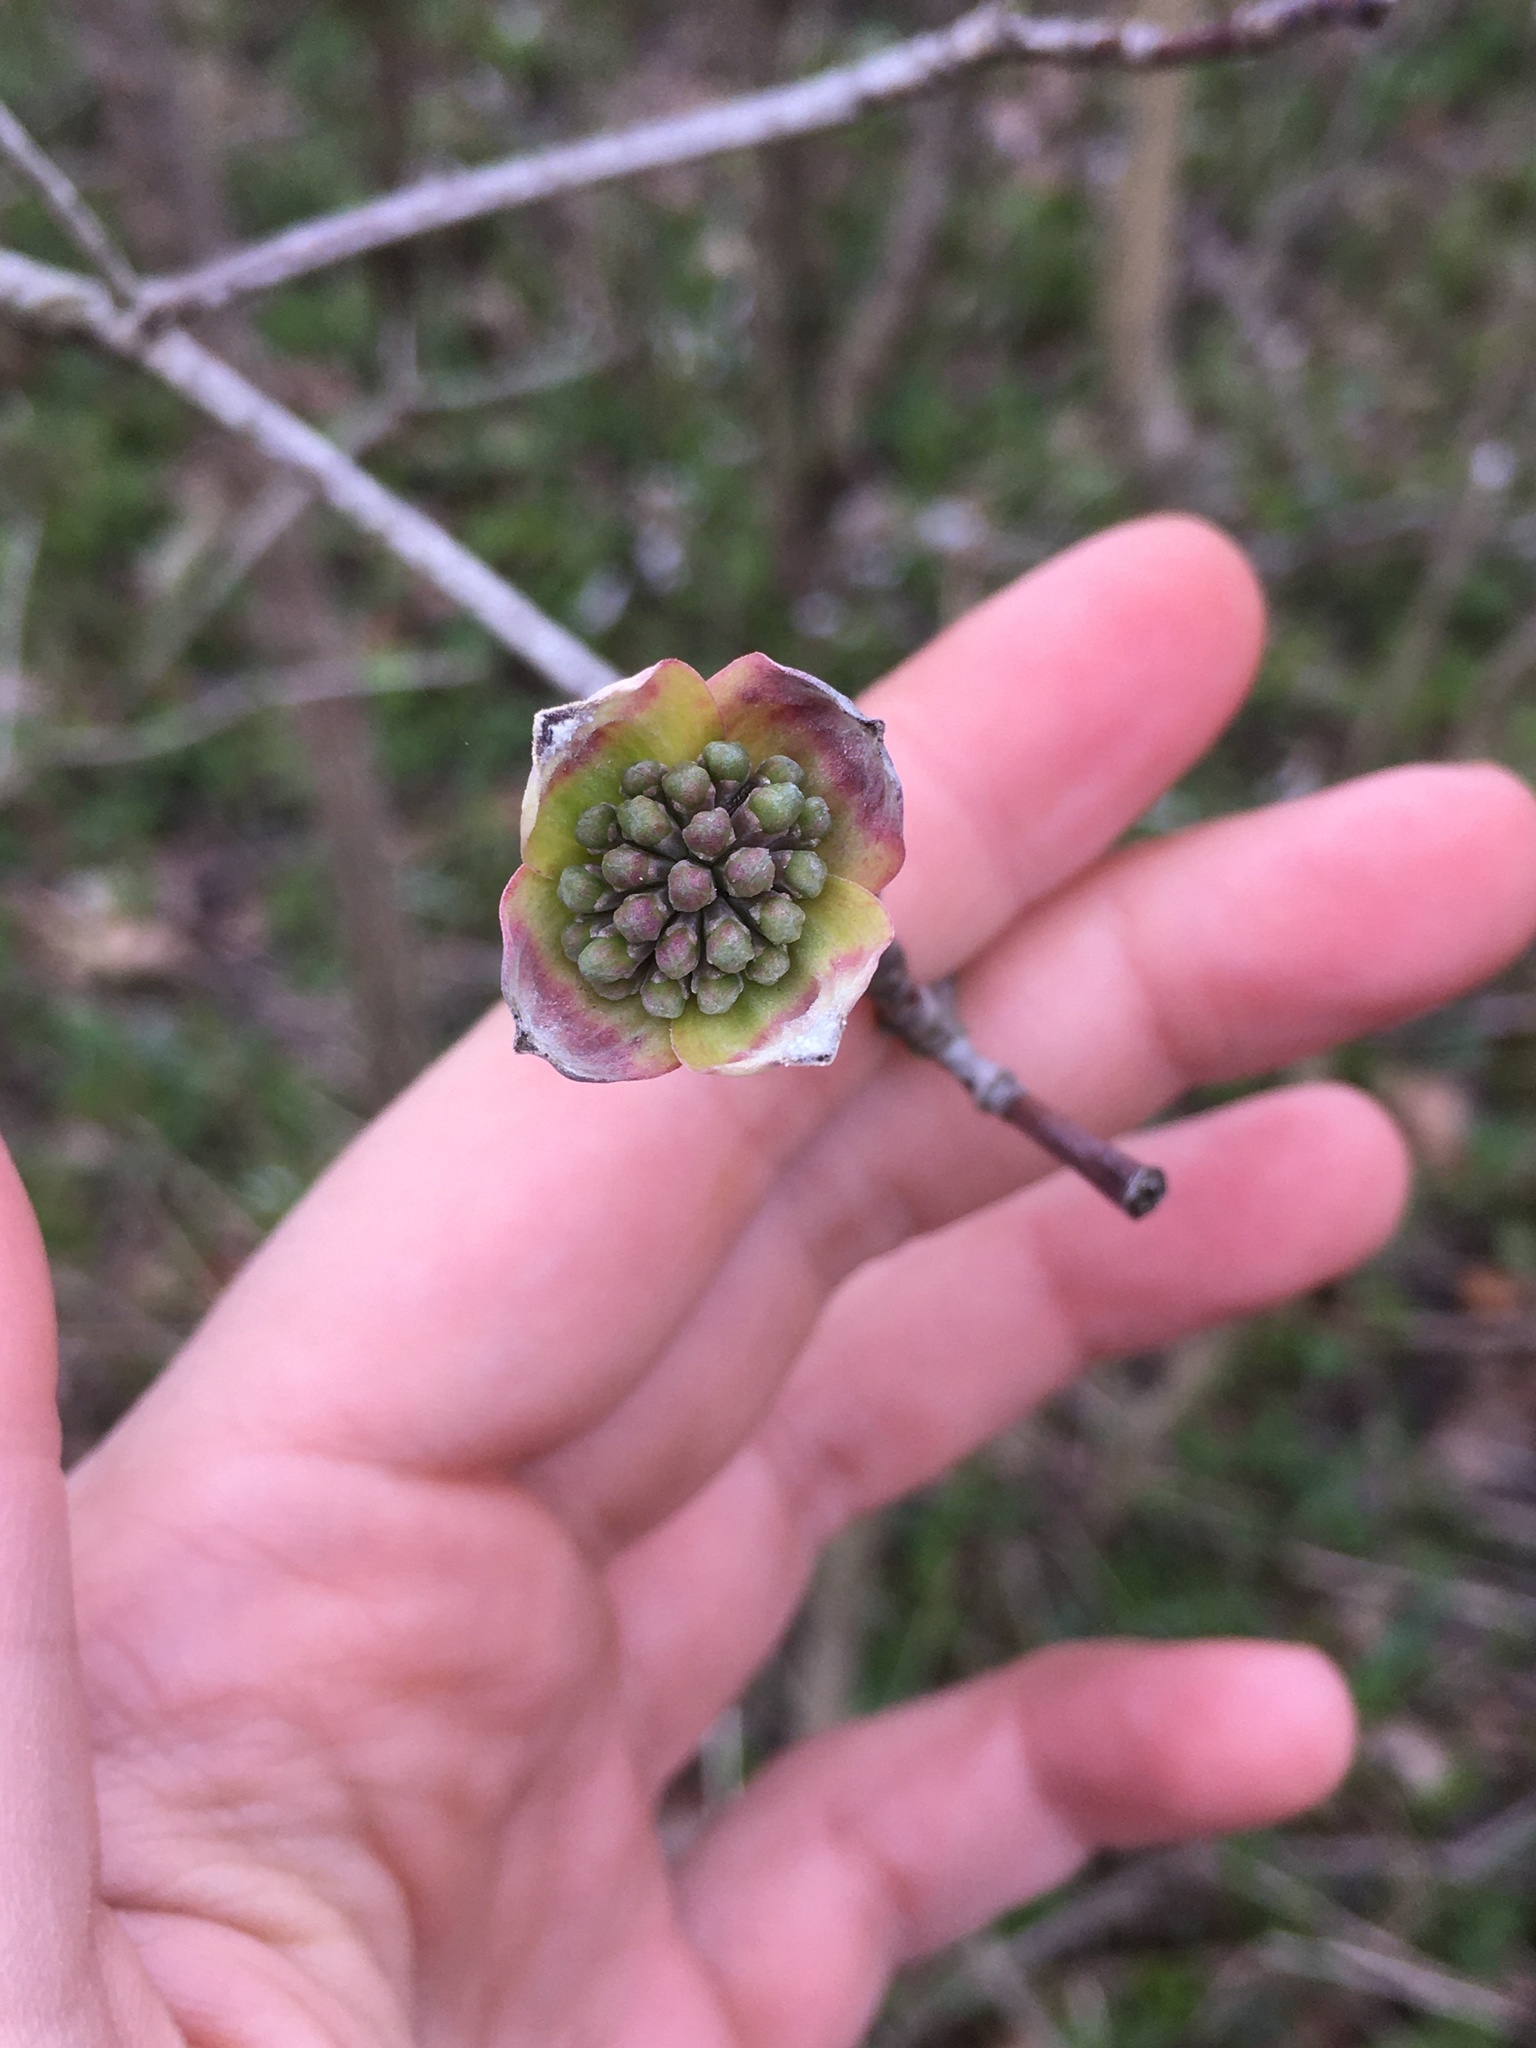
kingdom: Plantae
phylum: Tracheophyta
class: Magnoliopsida
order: Cornales
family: Cornaceae
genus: Cornus
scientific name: Cornus florida
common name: Flowering dogwood
